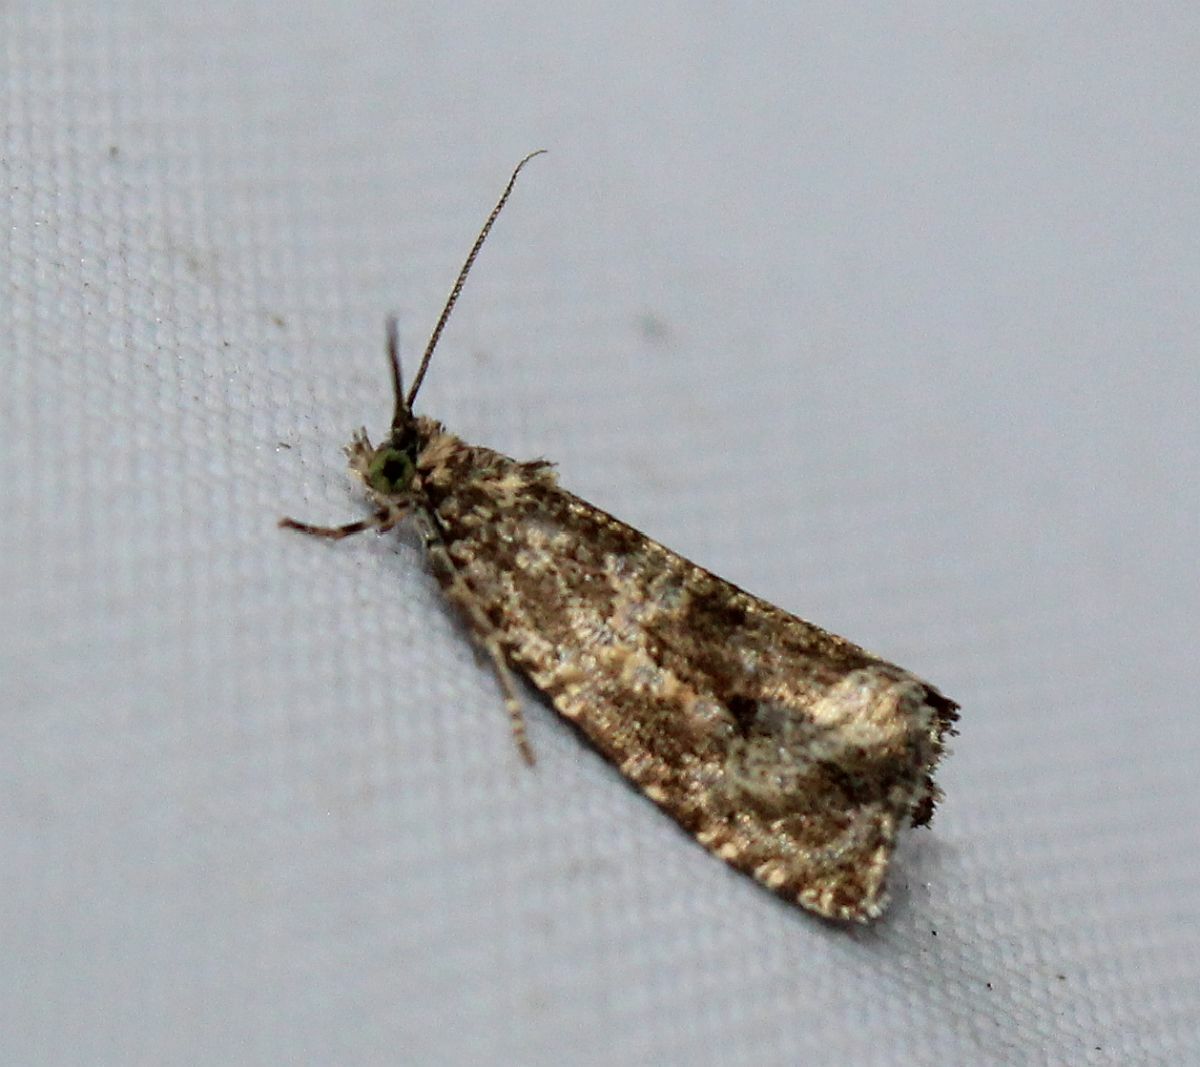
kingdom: Animalia
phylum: Arthropoda
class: Insecta
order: Lepidoptera
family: Tortricidae
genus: Syricoris
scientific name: Syricoris lacunana
